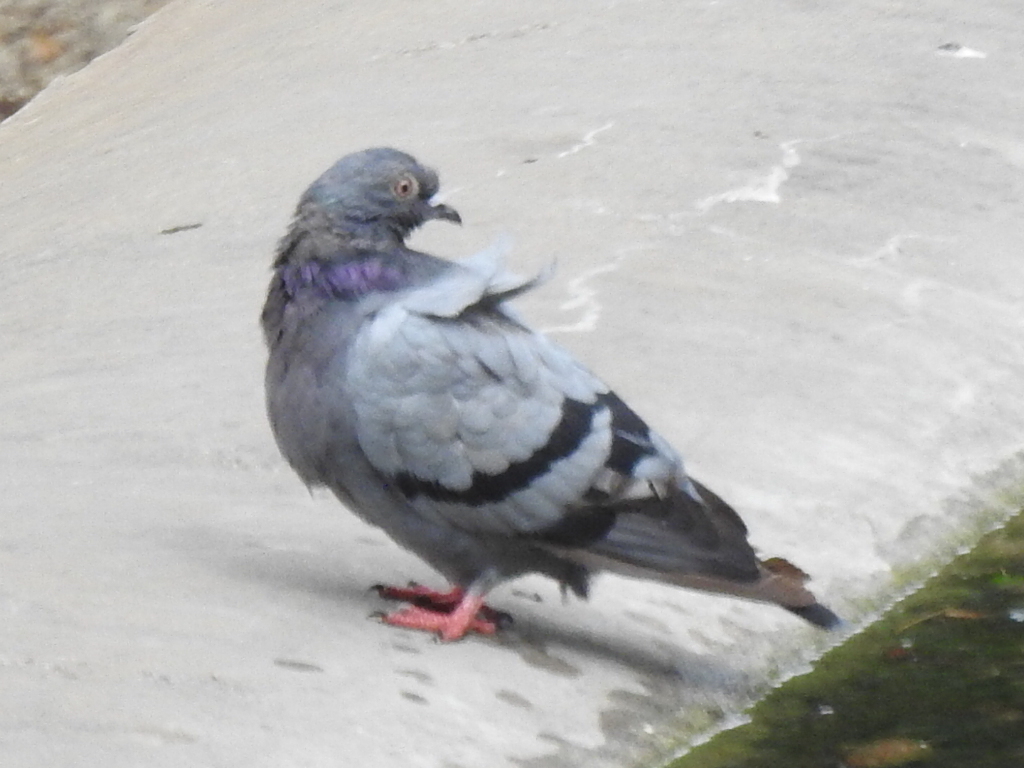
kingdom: Animalia
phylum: Chordata
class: Aves
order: Columbiformes
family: Columbidae
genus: Columba
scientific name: Columba livia
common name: Rock pigeon
